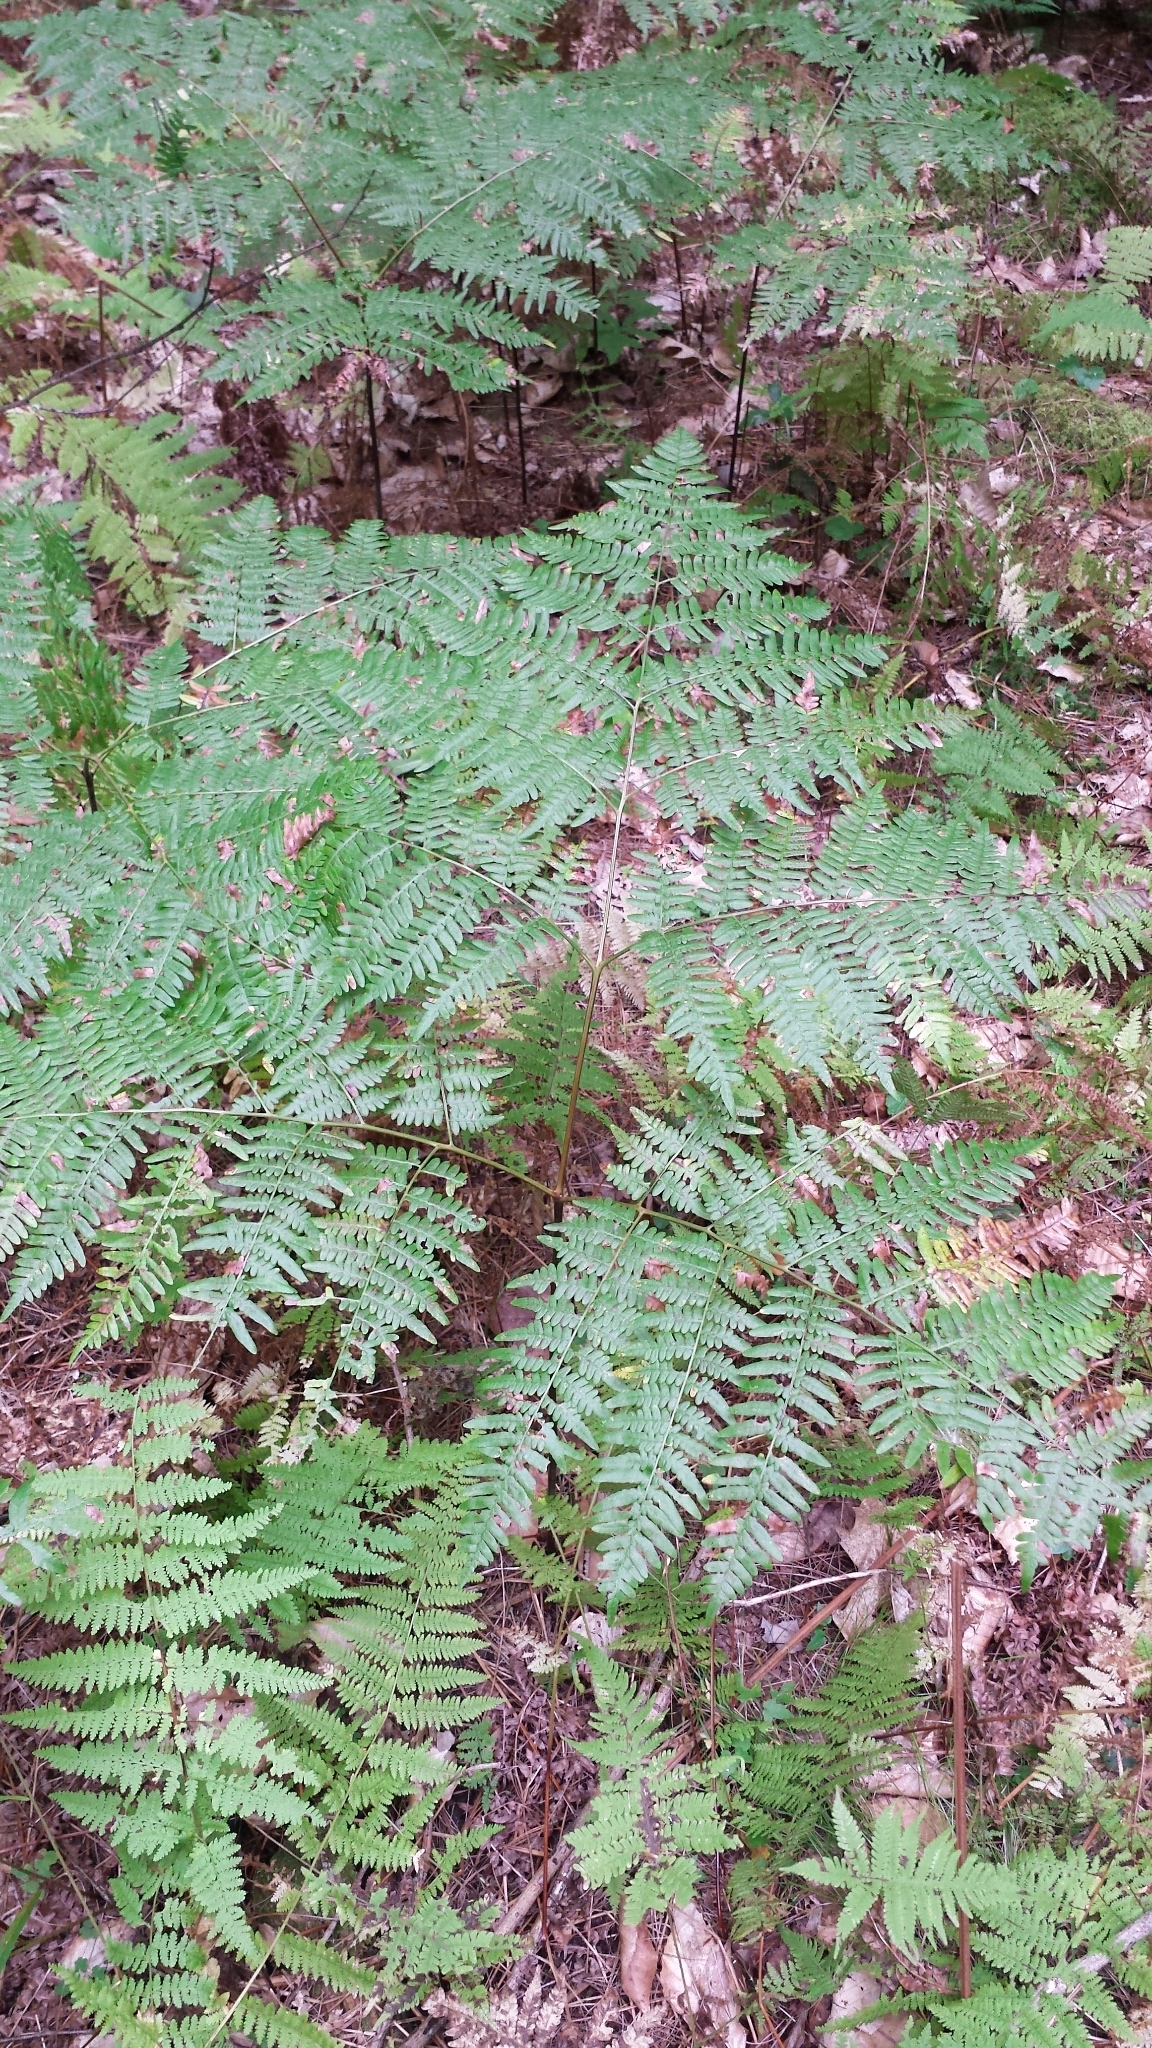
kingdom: Plantae
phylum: Tracheophyta
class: Polypodiopsida
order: Polypodiales
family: Dennstaedtiaceae
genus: Pteridium
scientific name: Pteridium aquilinum
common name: Bracken
